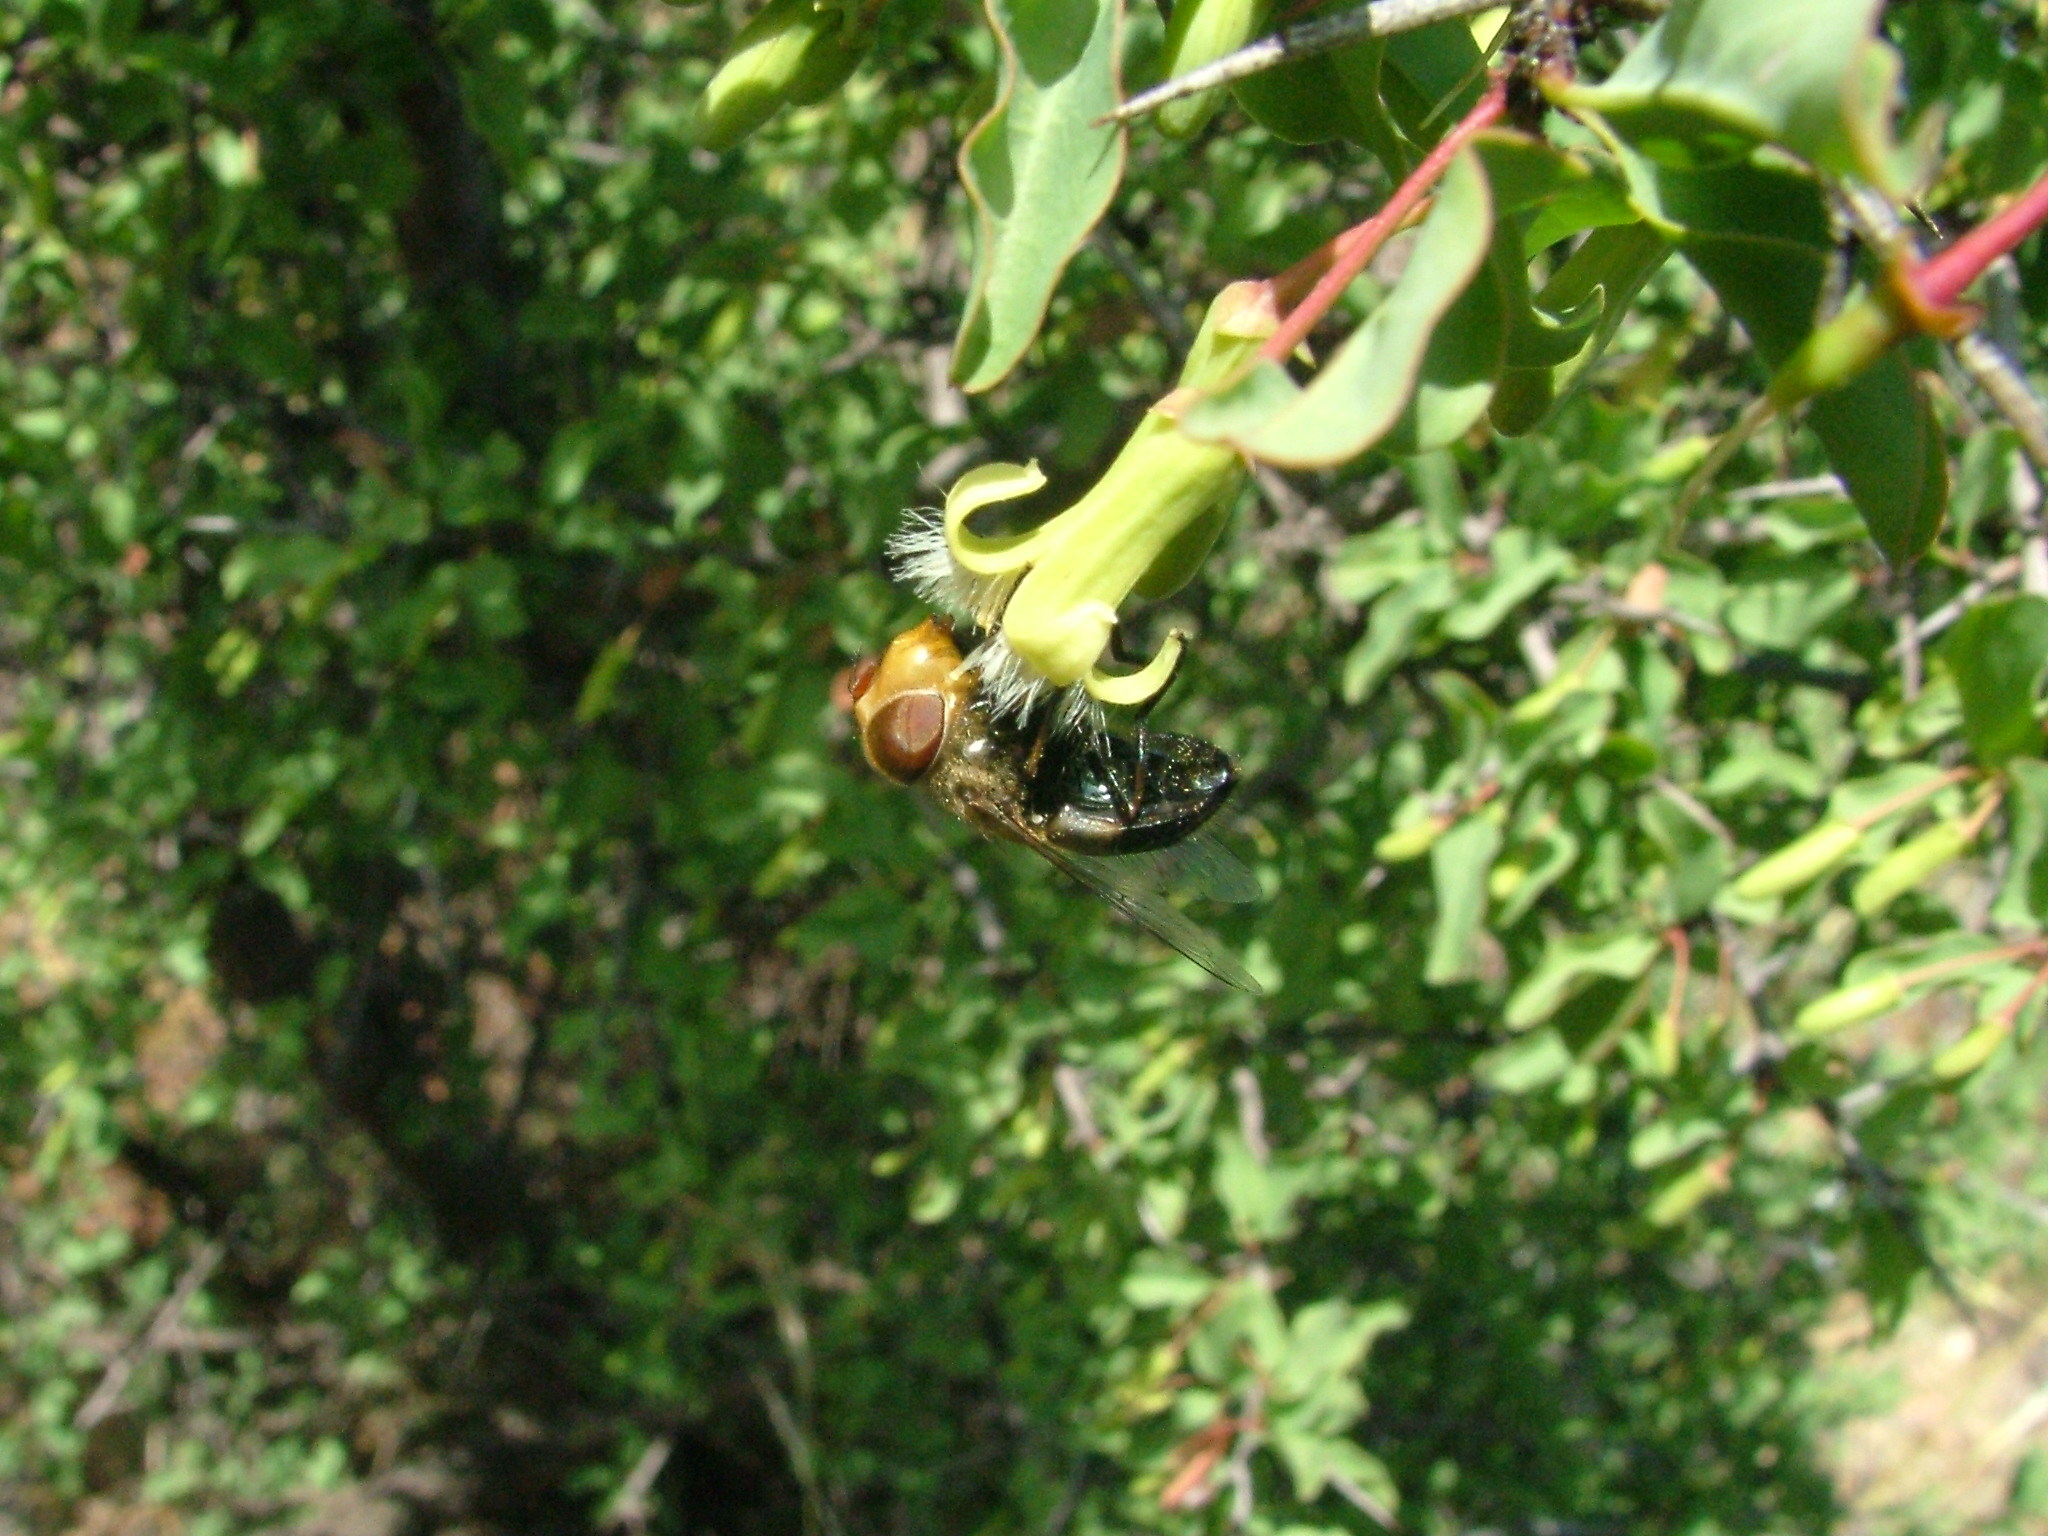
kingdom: Plantae
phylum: Tracheophyta
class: Magnoliopsida
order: Santalales
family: Ximeniaceae
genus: Ximenia
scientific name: Ximenia americana
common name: Tallowwood
